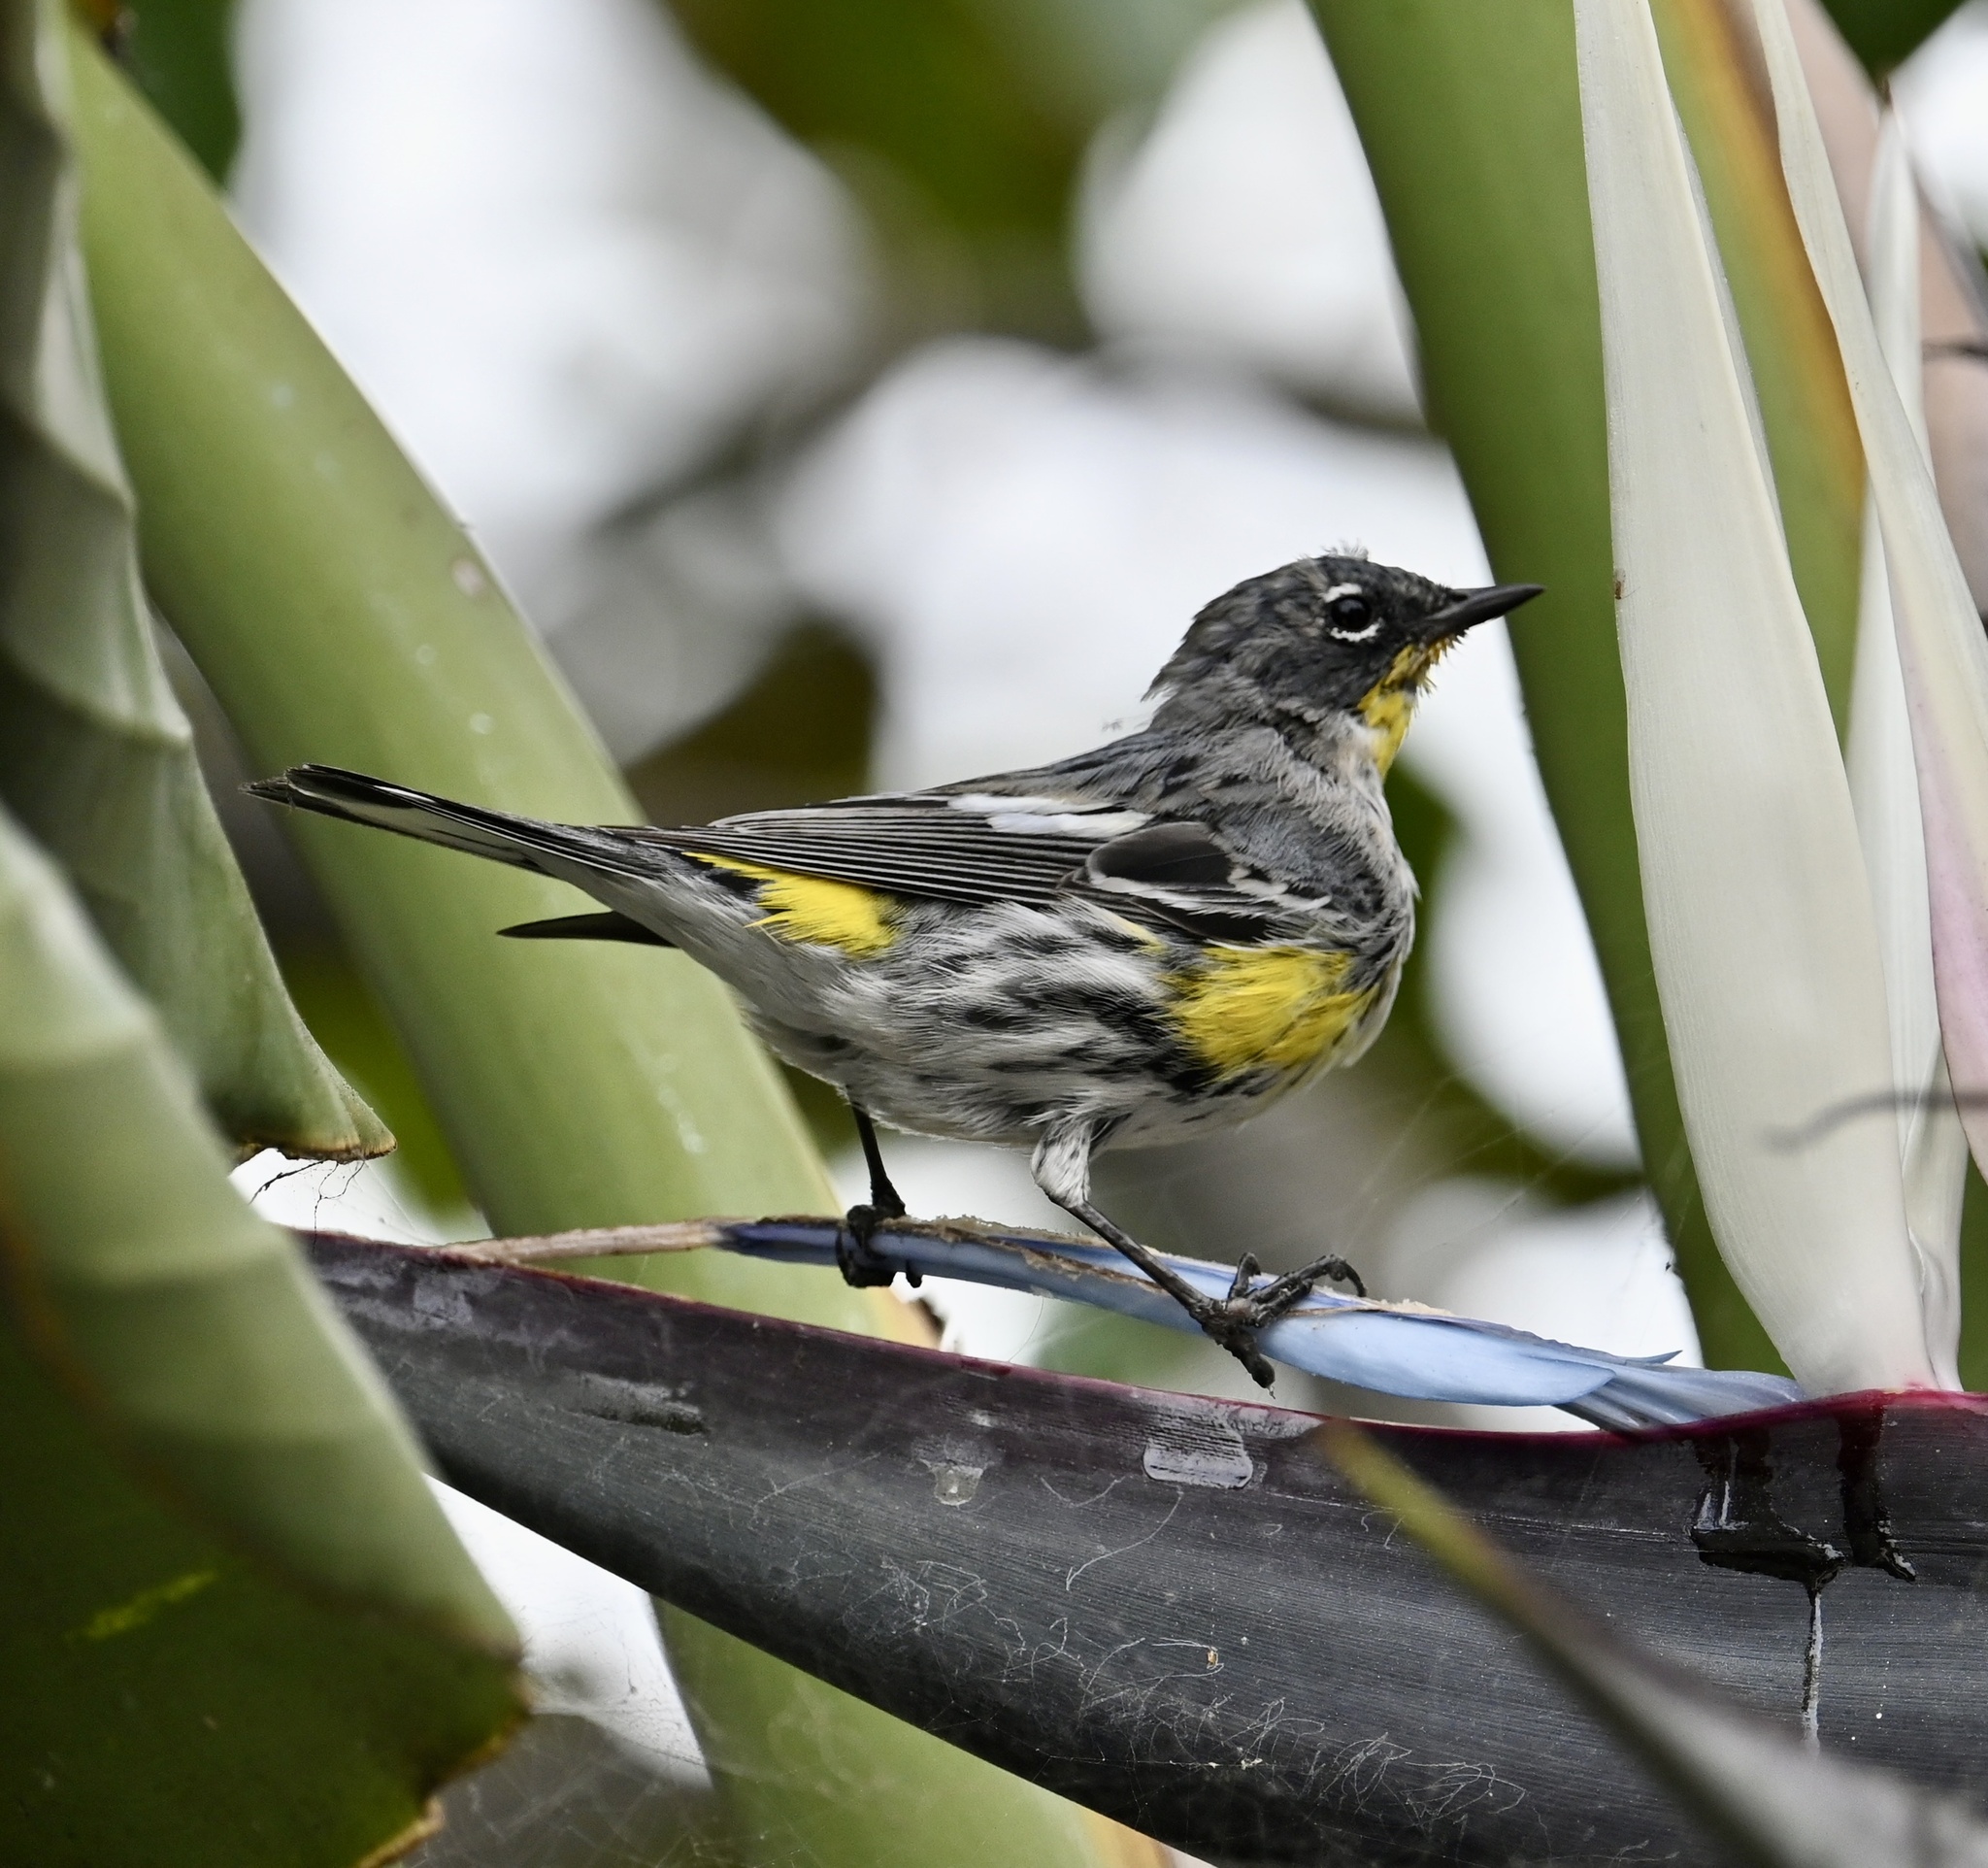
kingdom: Animalia
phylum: Chordata
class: Aves
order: Passeriformes
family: Parulidae
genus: Setophaga
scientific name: Setophaga coronata
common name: Myrtle warbler
